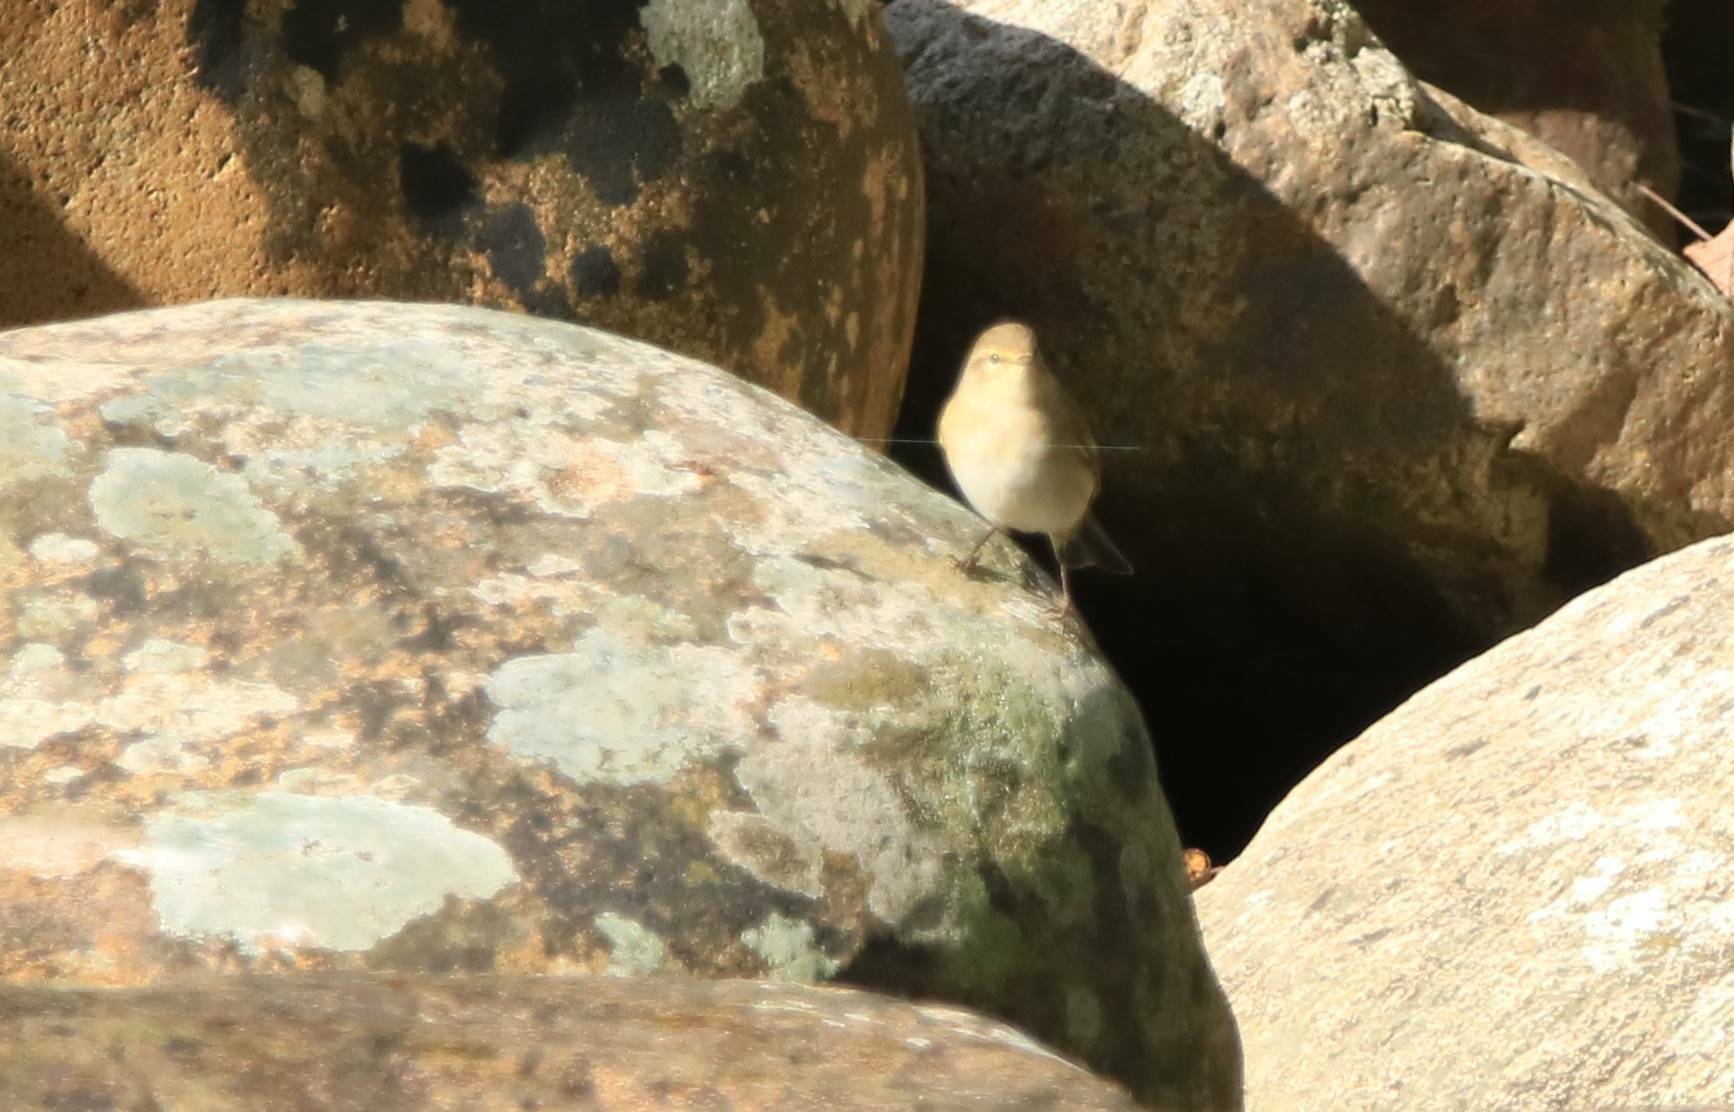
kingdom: Animalia
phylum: Chordata
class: Aves
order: Passeriformes
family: Phylloscopidae
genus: Phylloscopus
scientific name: Phylloscopus collybita
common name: Common chiffchaff
